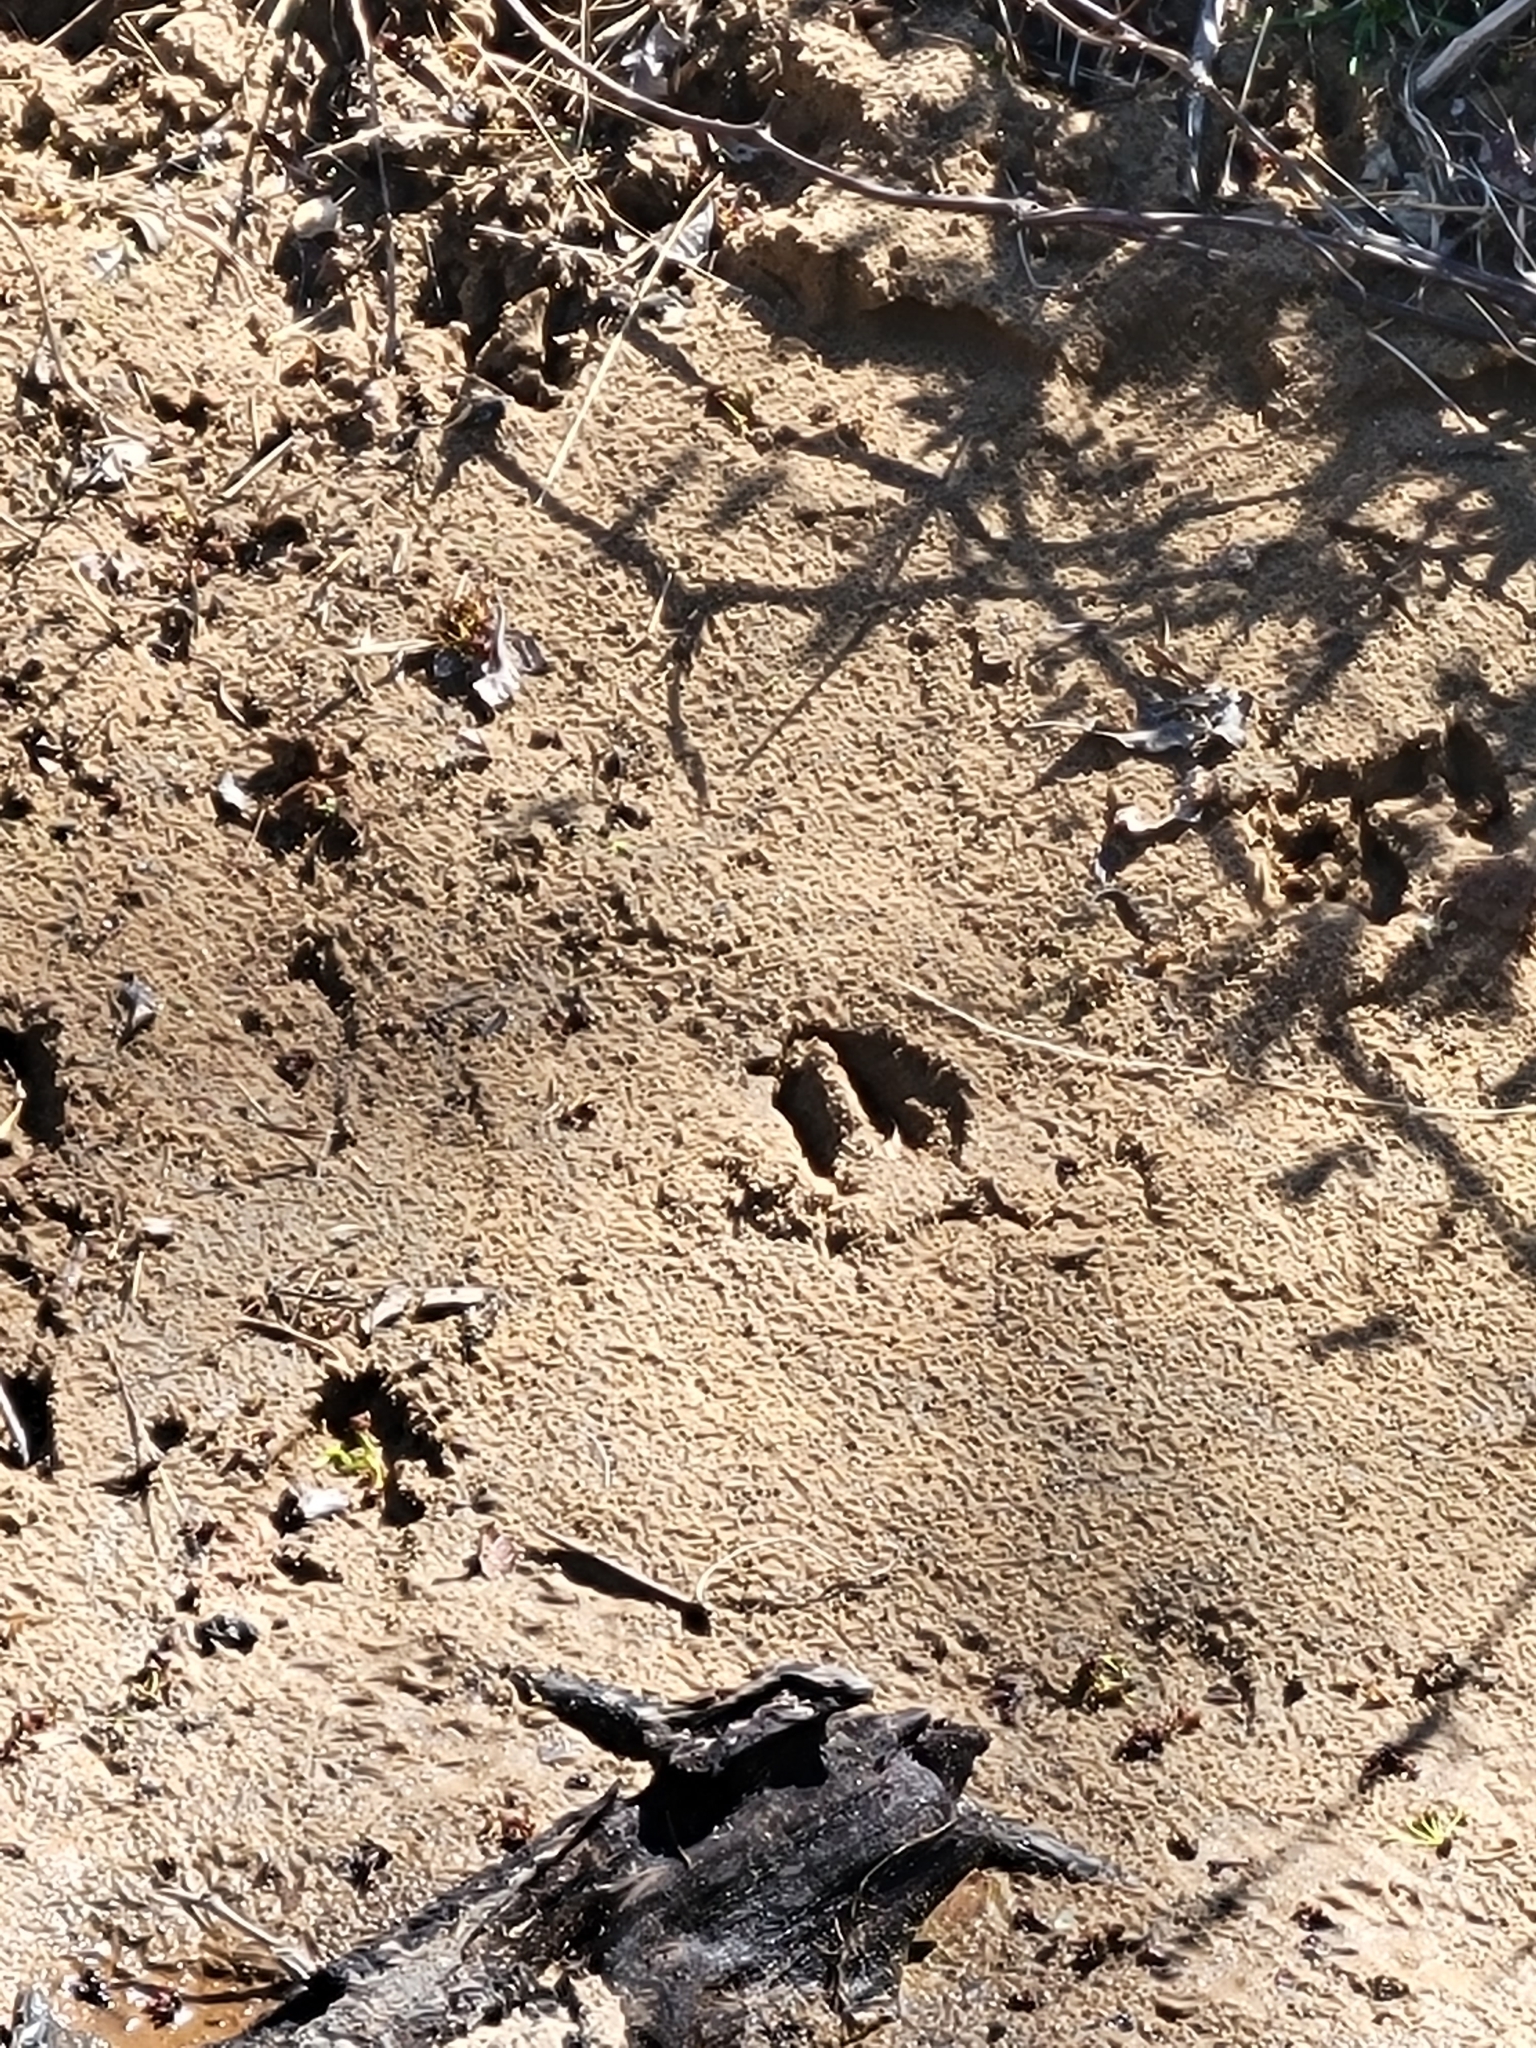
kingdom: Animalia
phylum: Chordata
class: Mammalia
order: Artiodactyla
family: Cervidae
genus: Odocoileus
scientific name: Odocoileus virginianus
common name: White-tailed deer
